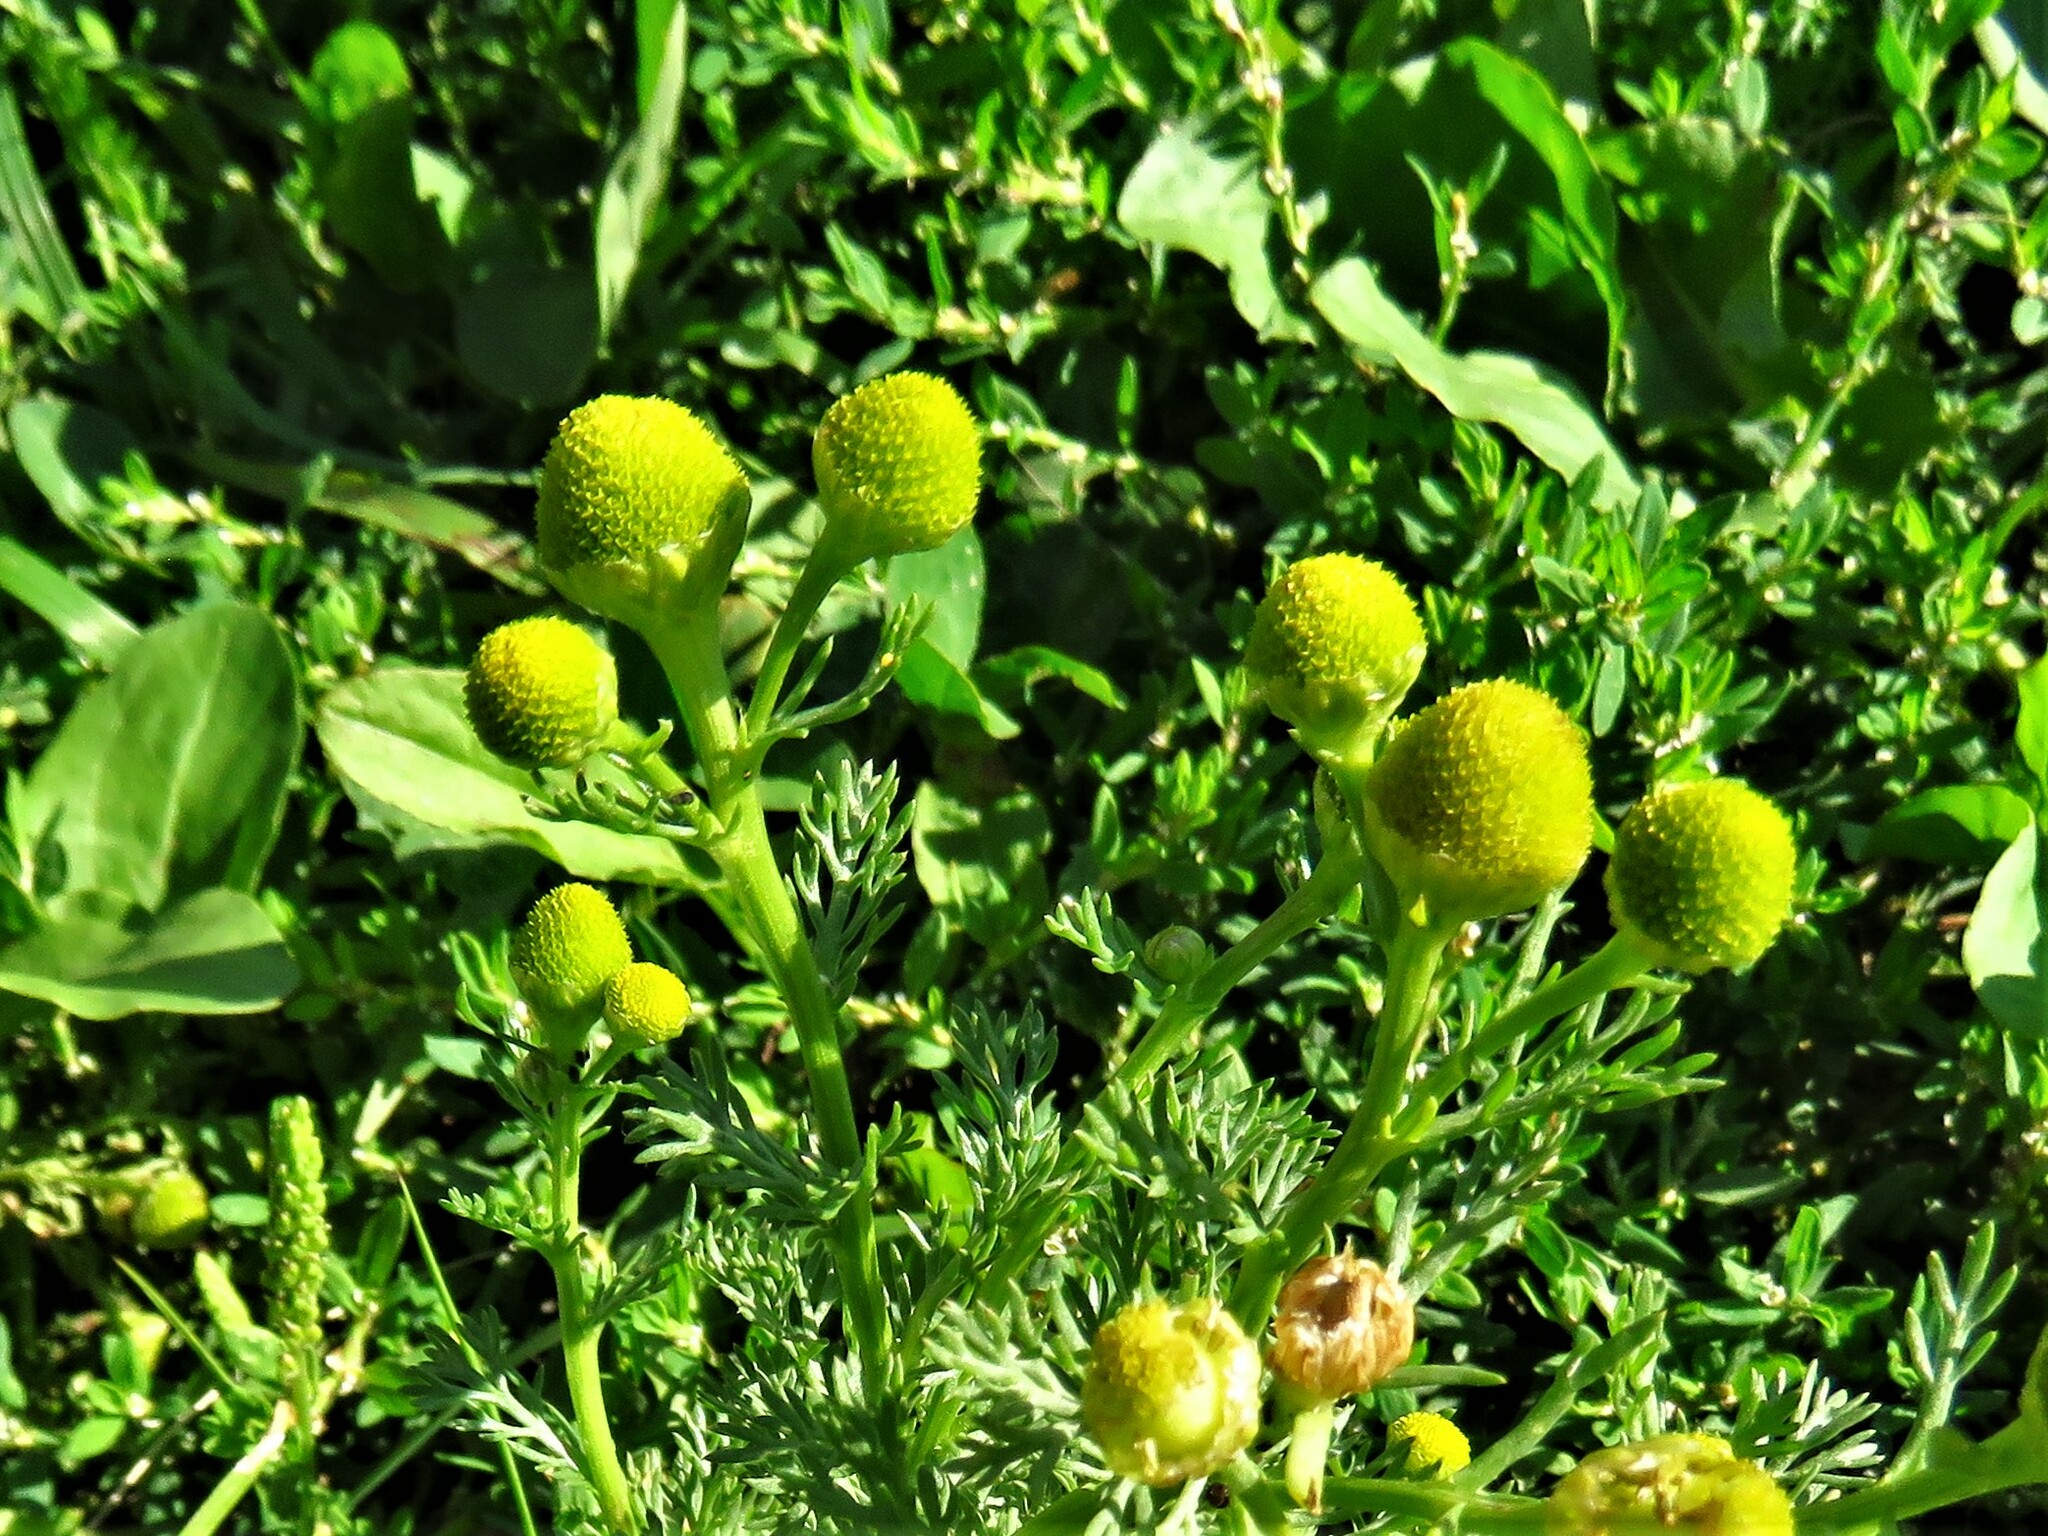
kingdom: Plantae
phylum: Tracheophyta
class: Magnoliopsida
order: Asterales
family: Asteraceae
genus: Matricaria
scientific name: Matricaria discoidea
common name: Disc mayweed
